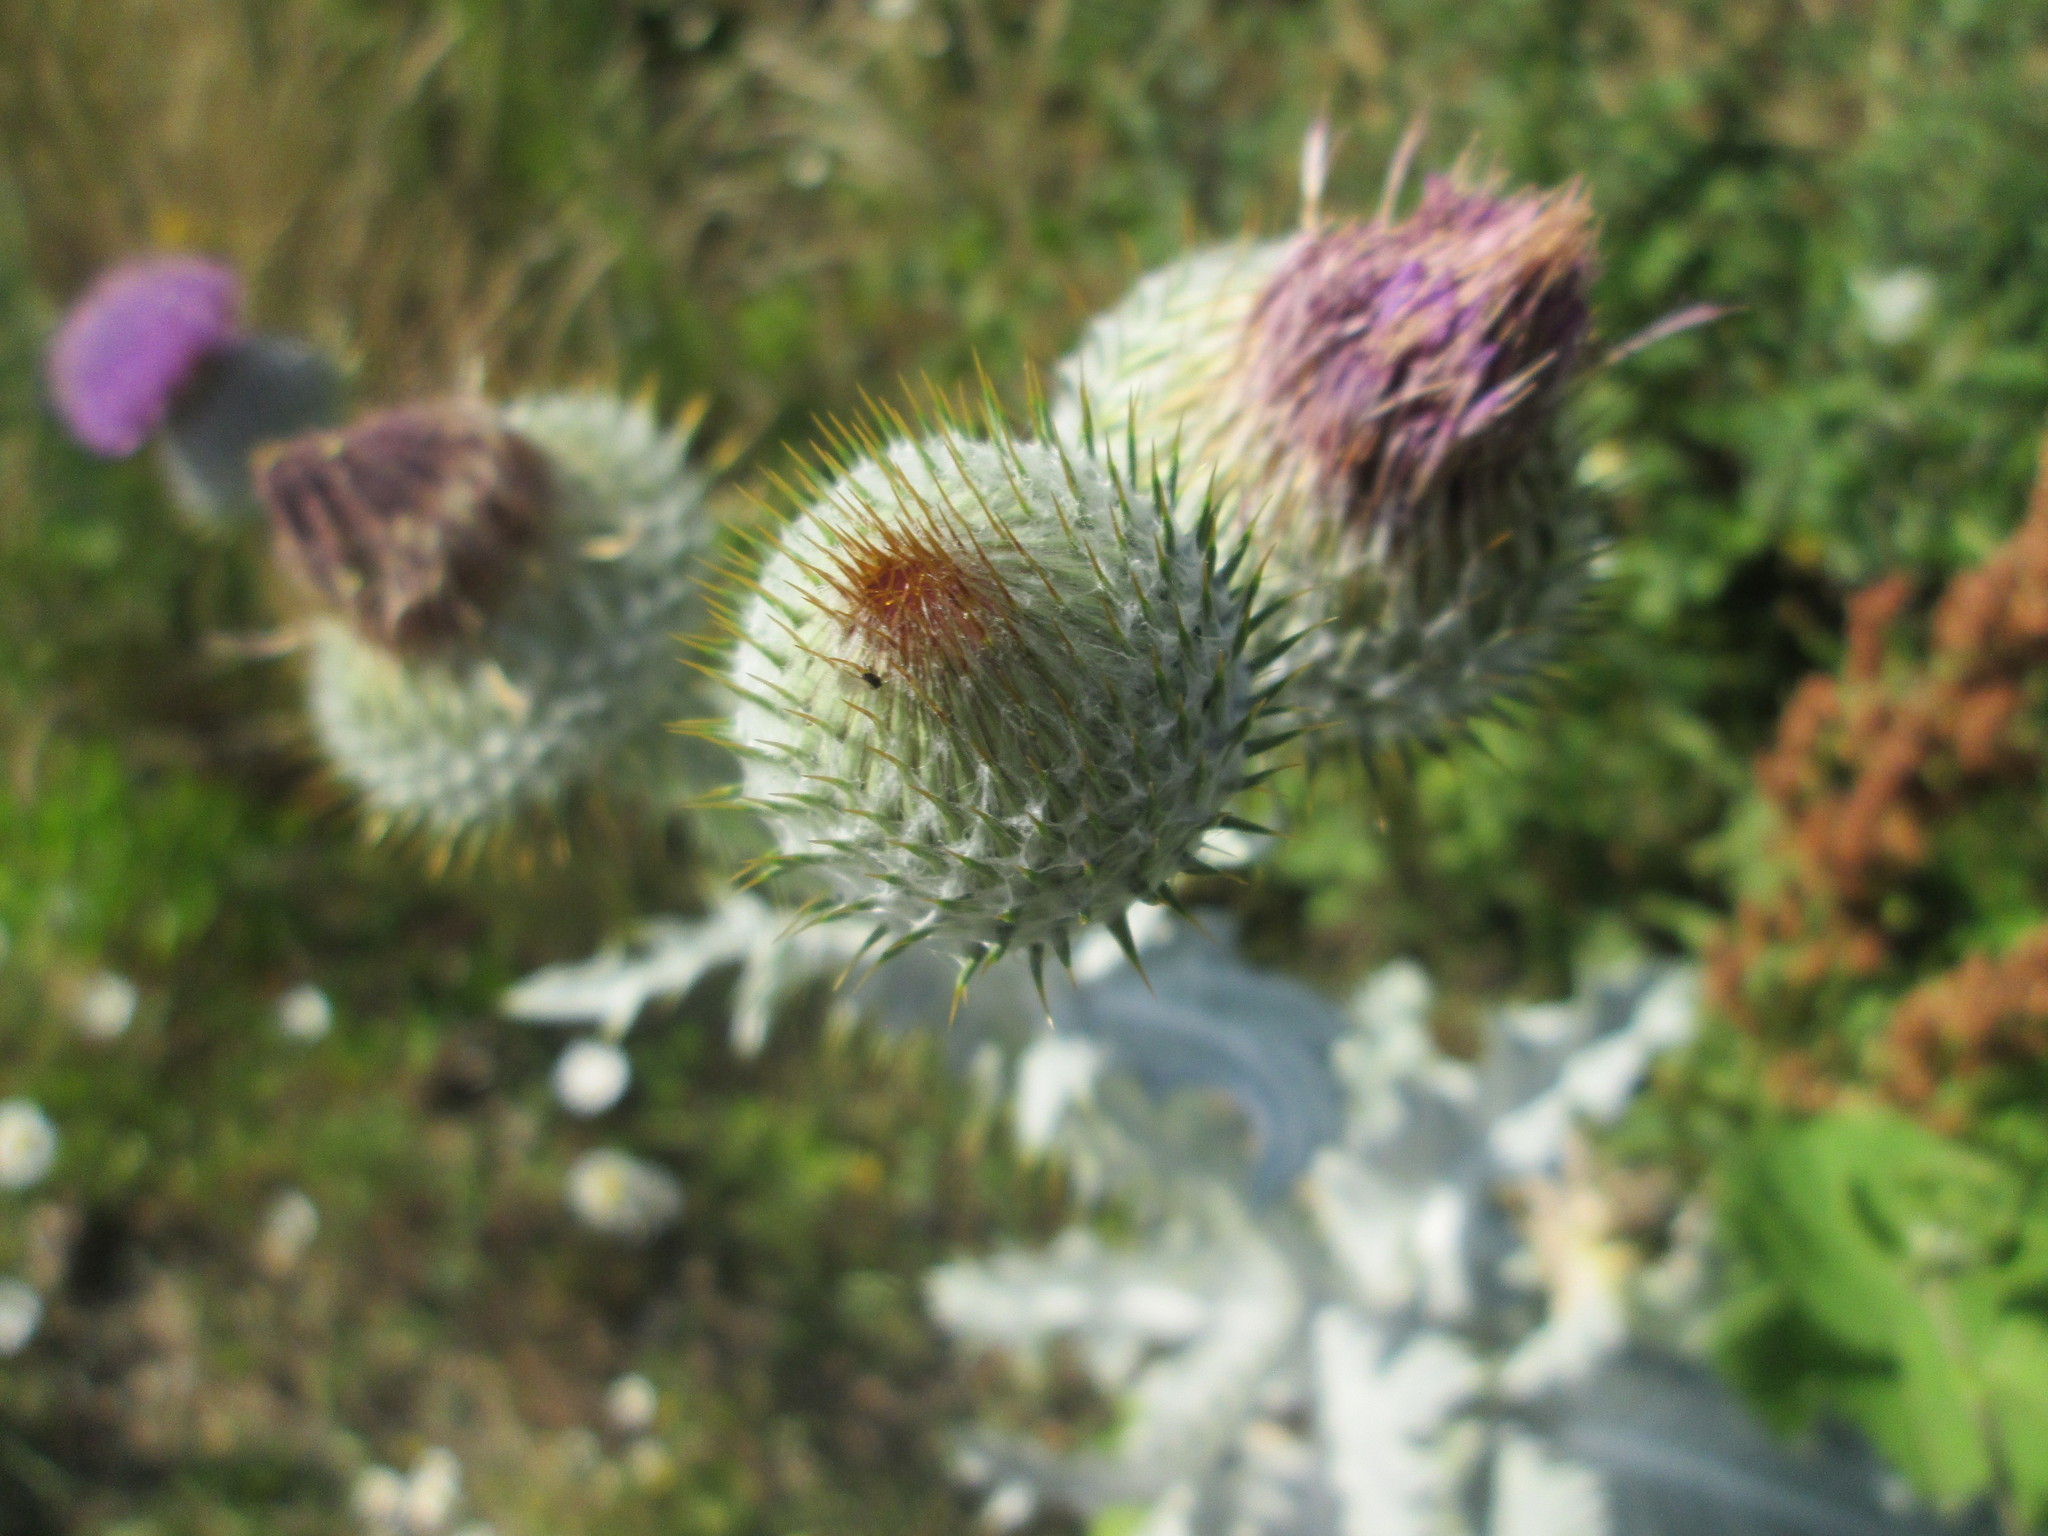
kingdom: Plantae
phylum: Tracheophyta
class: Magnoliopsida
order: Asterales
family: Asteraceae
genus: Onopordum
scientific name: Onopordum acanthium
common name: Scotch thistle
